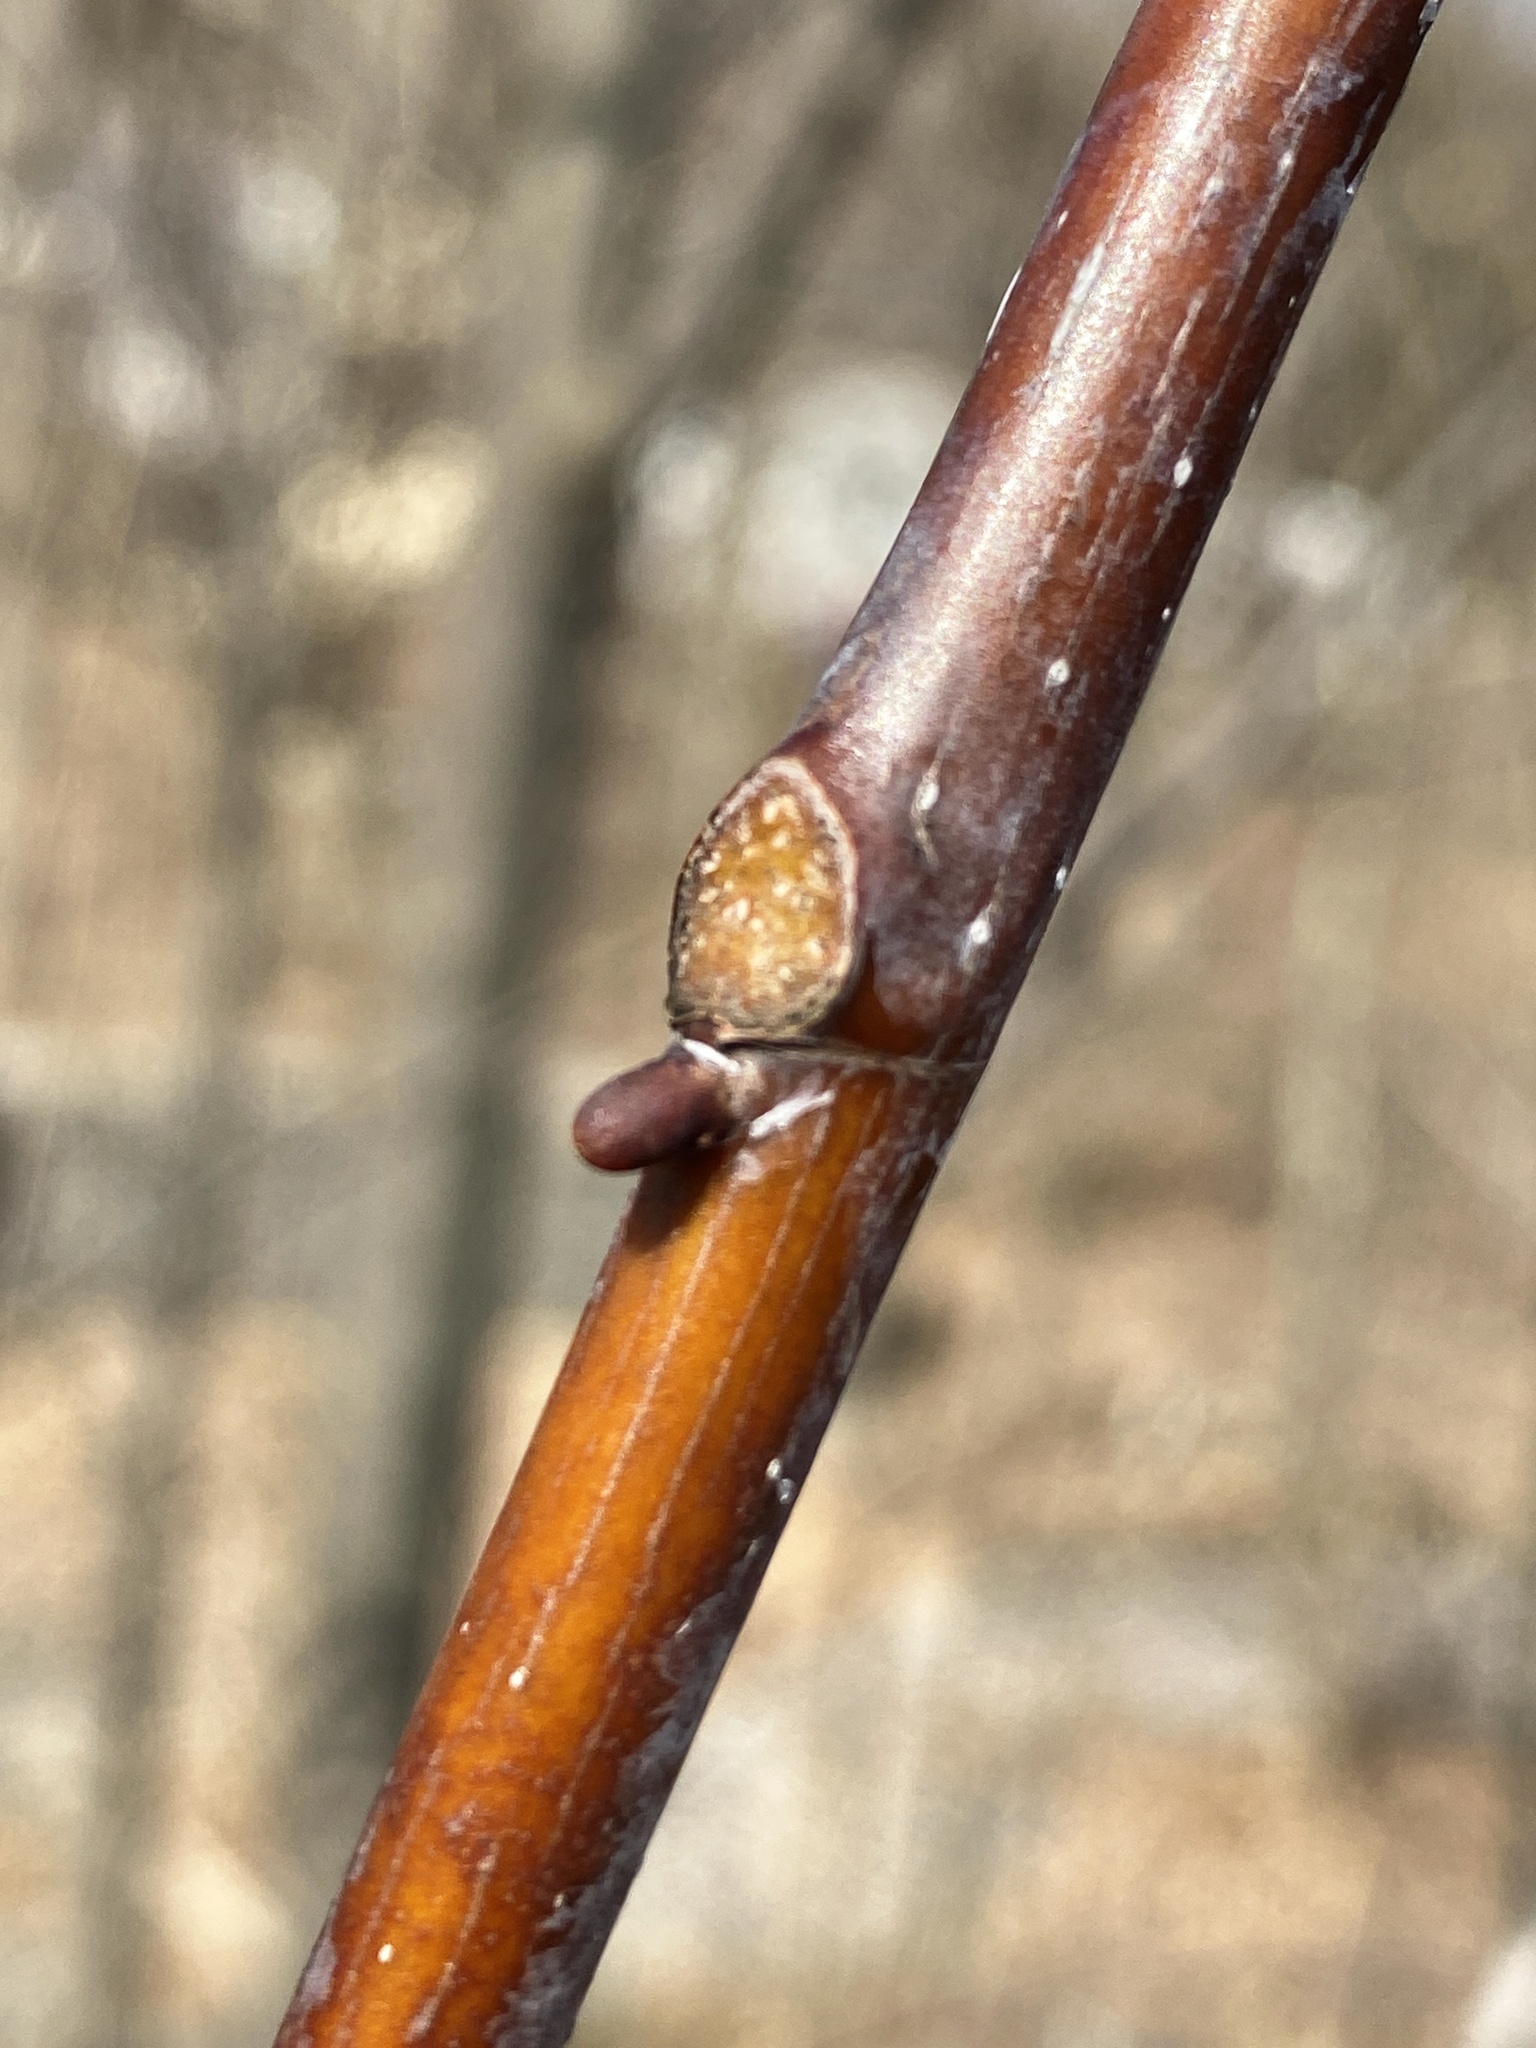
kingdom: Plantae
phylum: Tracheophyta
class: Magnoliopsida
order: Magnoliales
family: Magnoliaceae
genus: Liriodendron
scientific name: Liriodendron tulipifera
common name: Tulip tree
